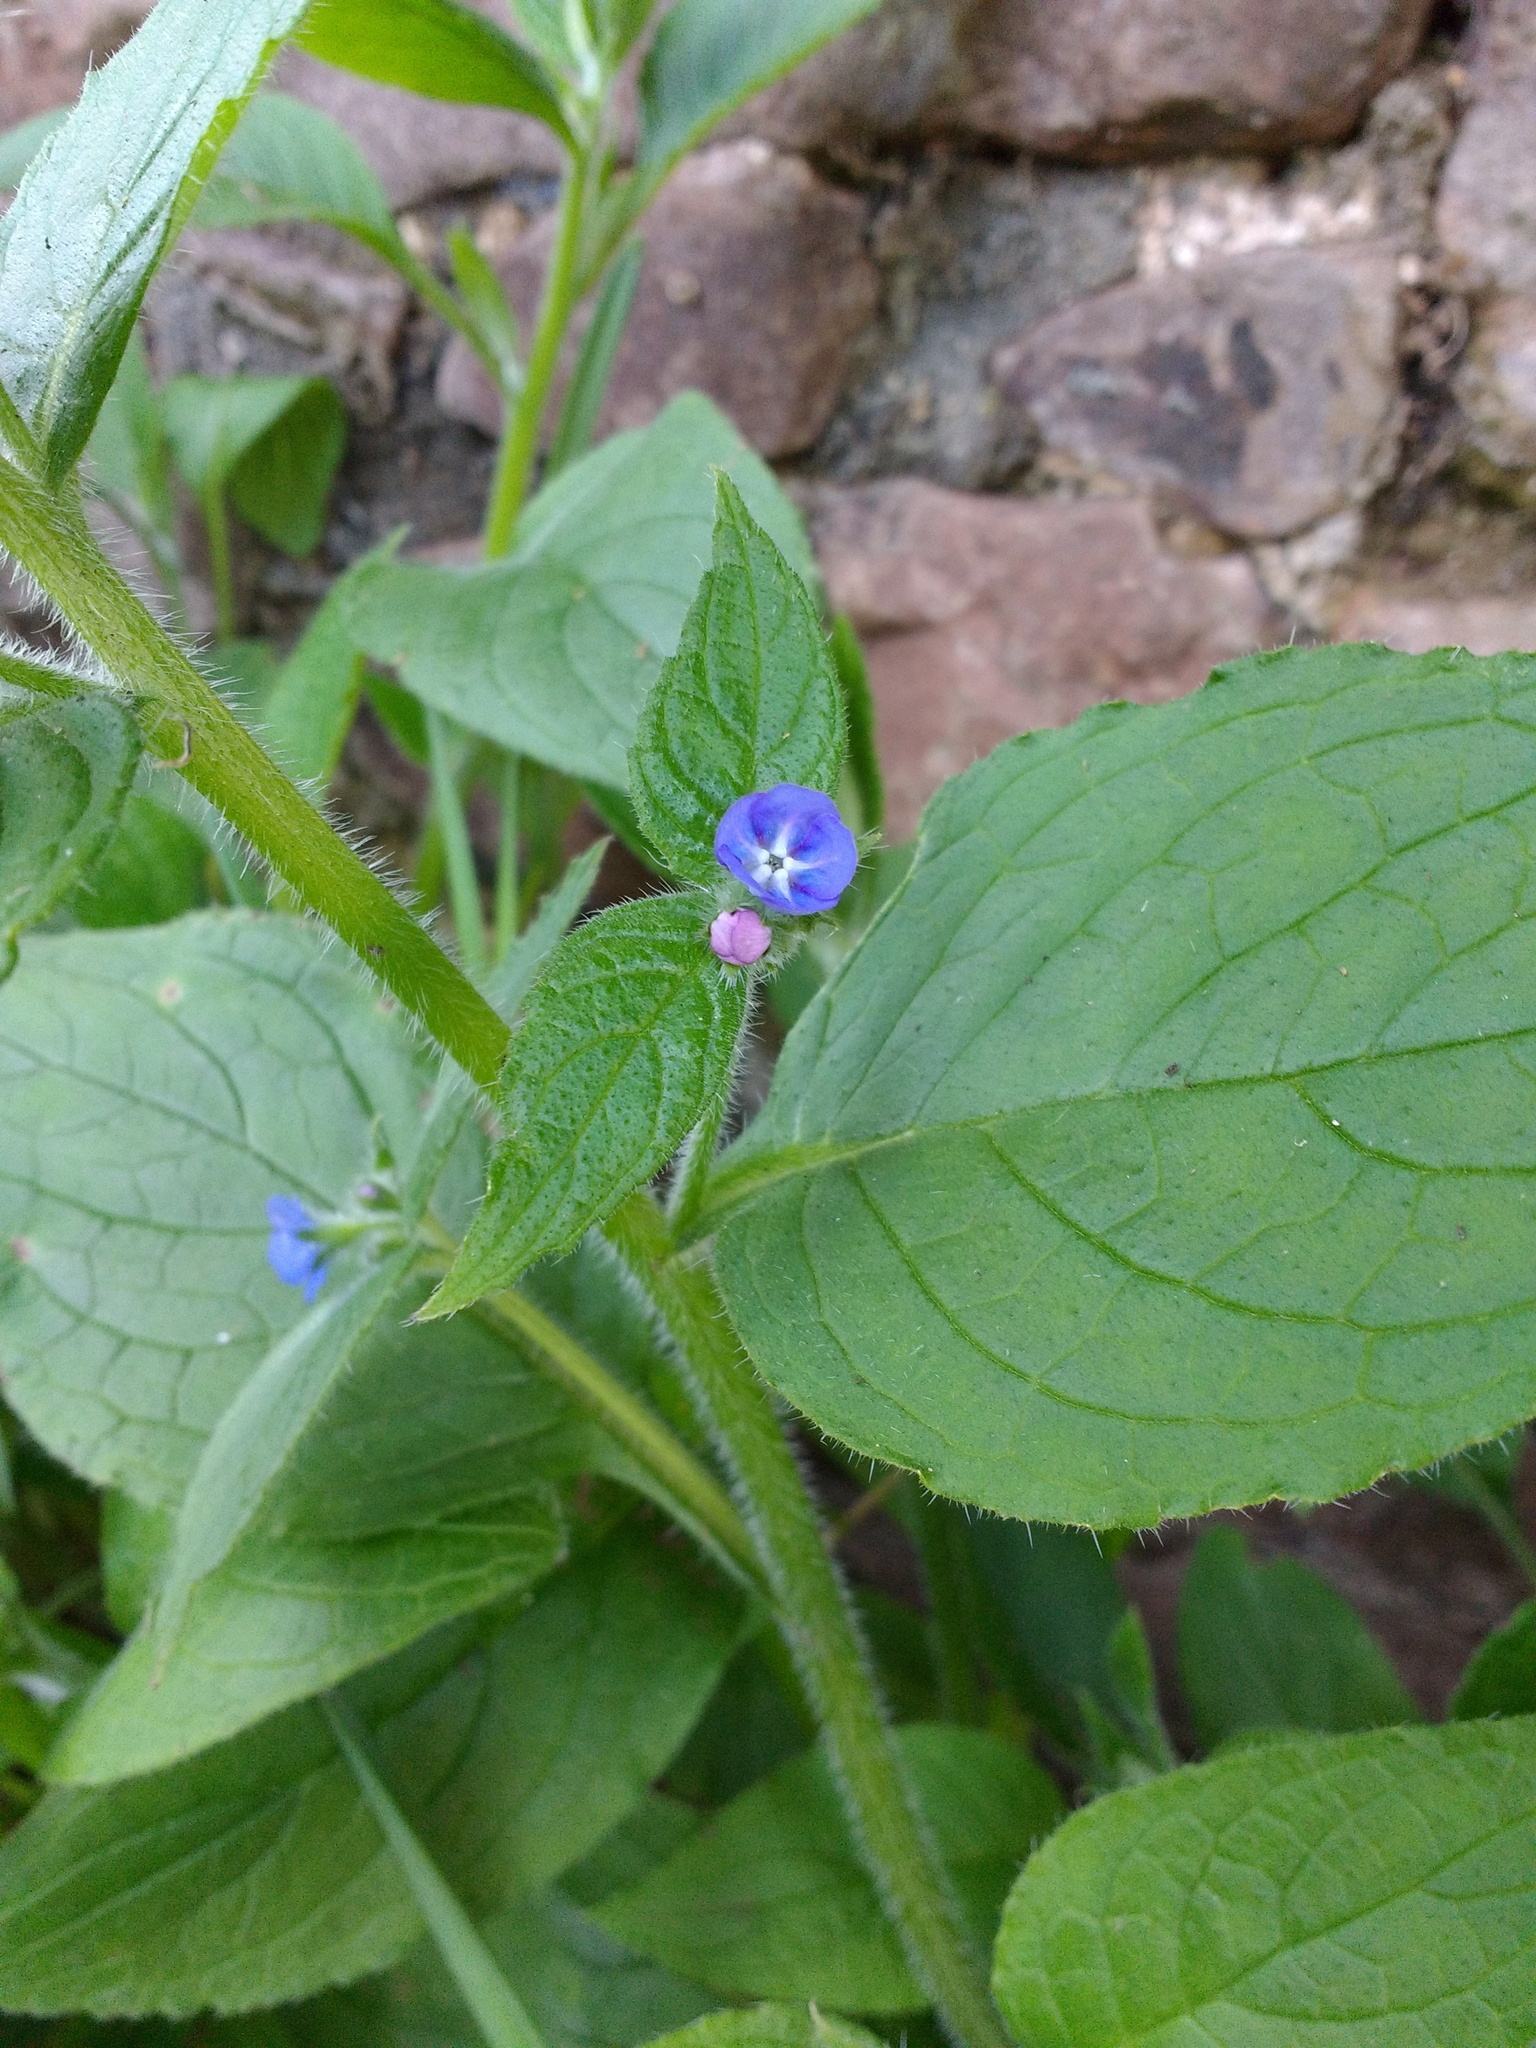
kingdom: Plantae
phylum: Tracheophyta
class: Magnoliopsida
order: Boraginales
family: Boraginaceae
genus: Pentaglottis
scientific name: Pentaglottis sempervirens
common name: Green alkanet
